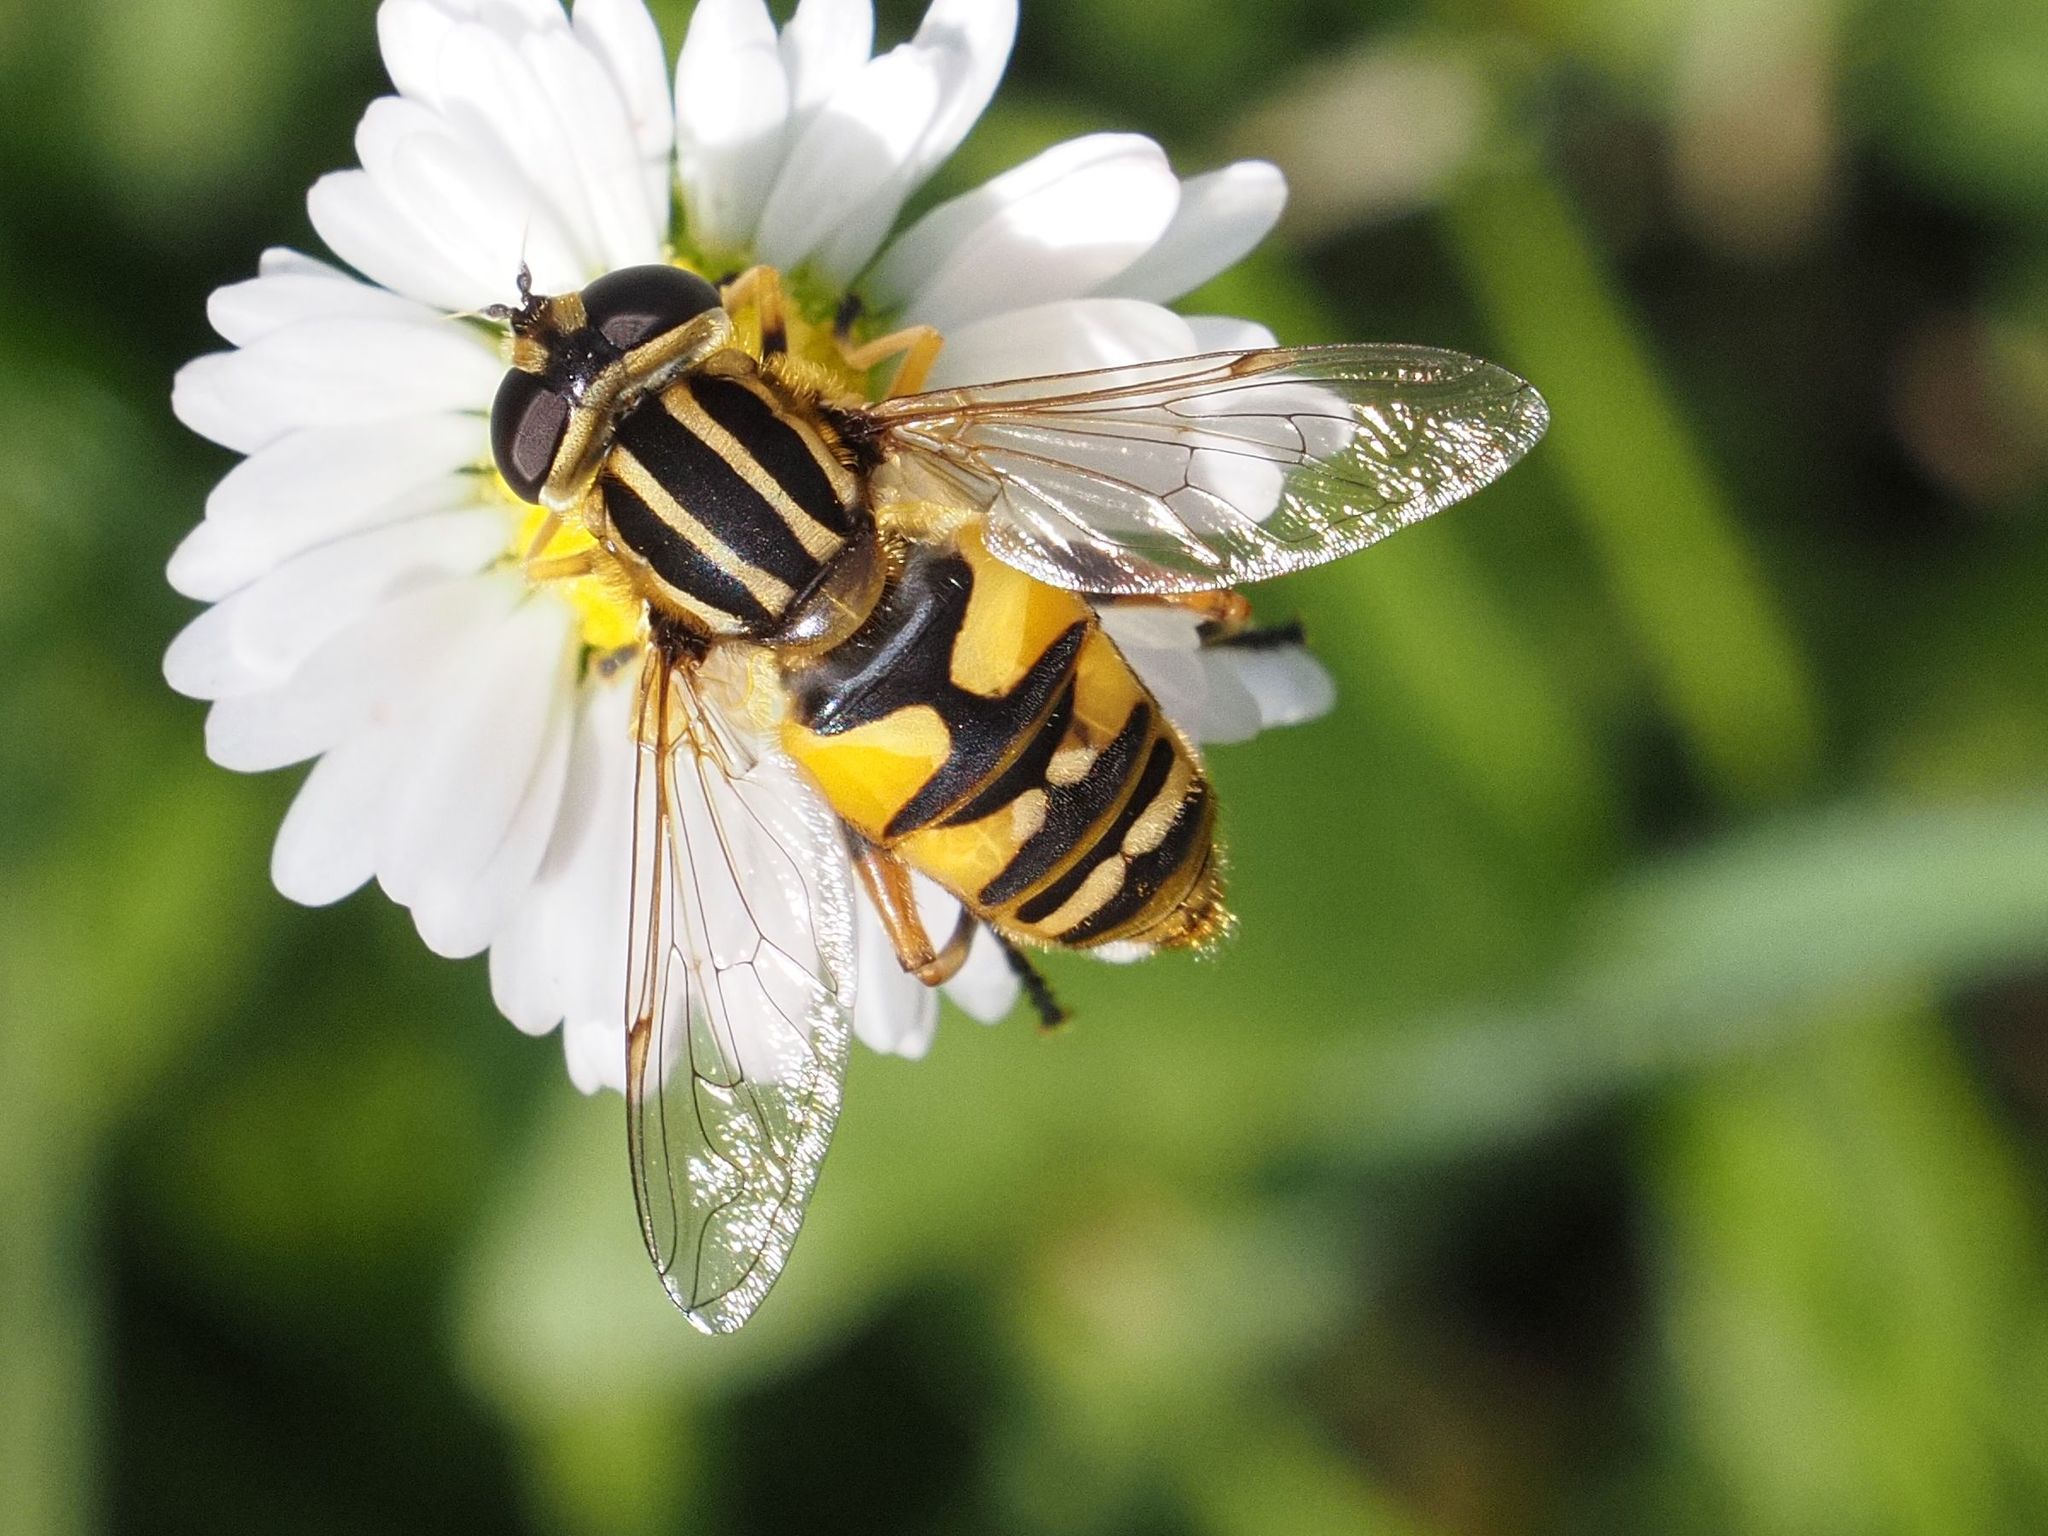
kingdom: Animalia
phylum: Arthropoda
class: Insecta
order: Diptera
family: Syrphidae
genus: Helophilus
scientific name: Helophilus pendulus
